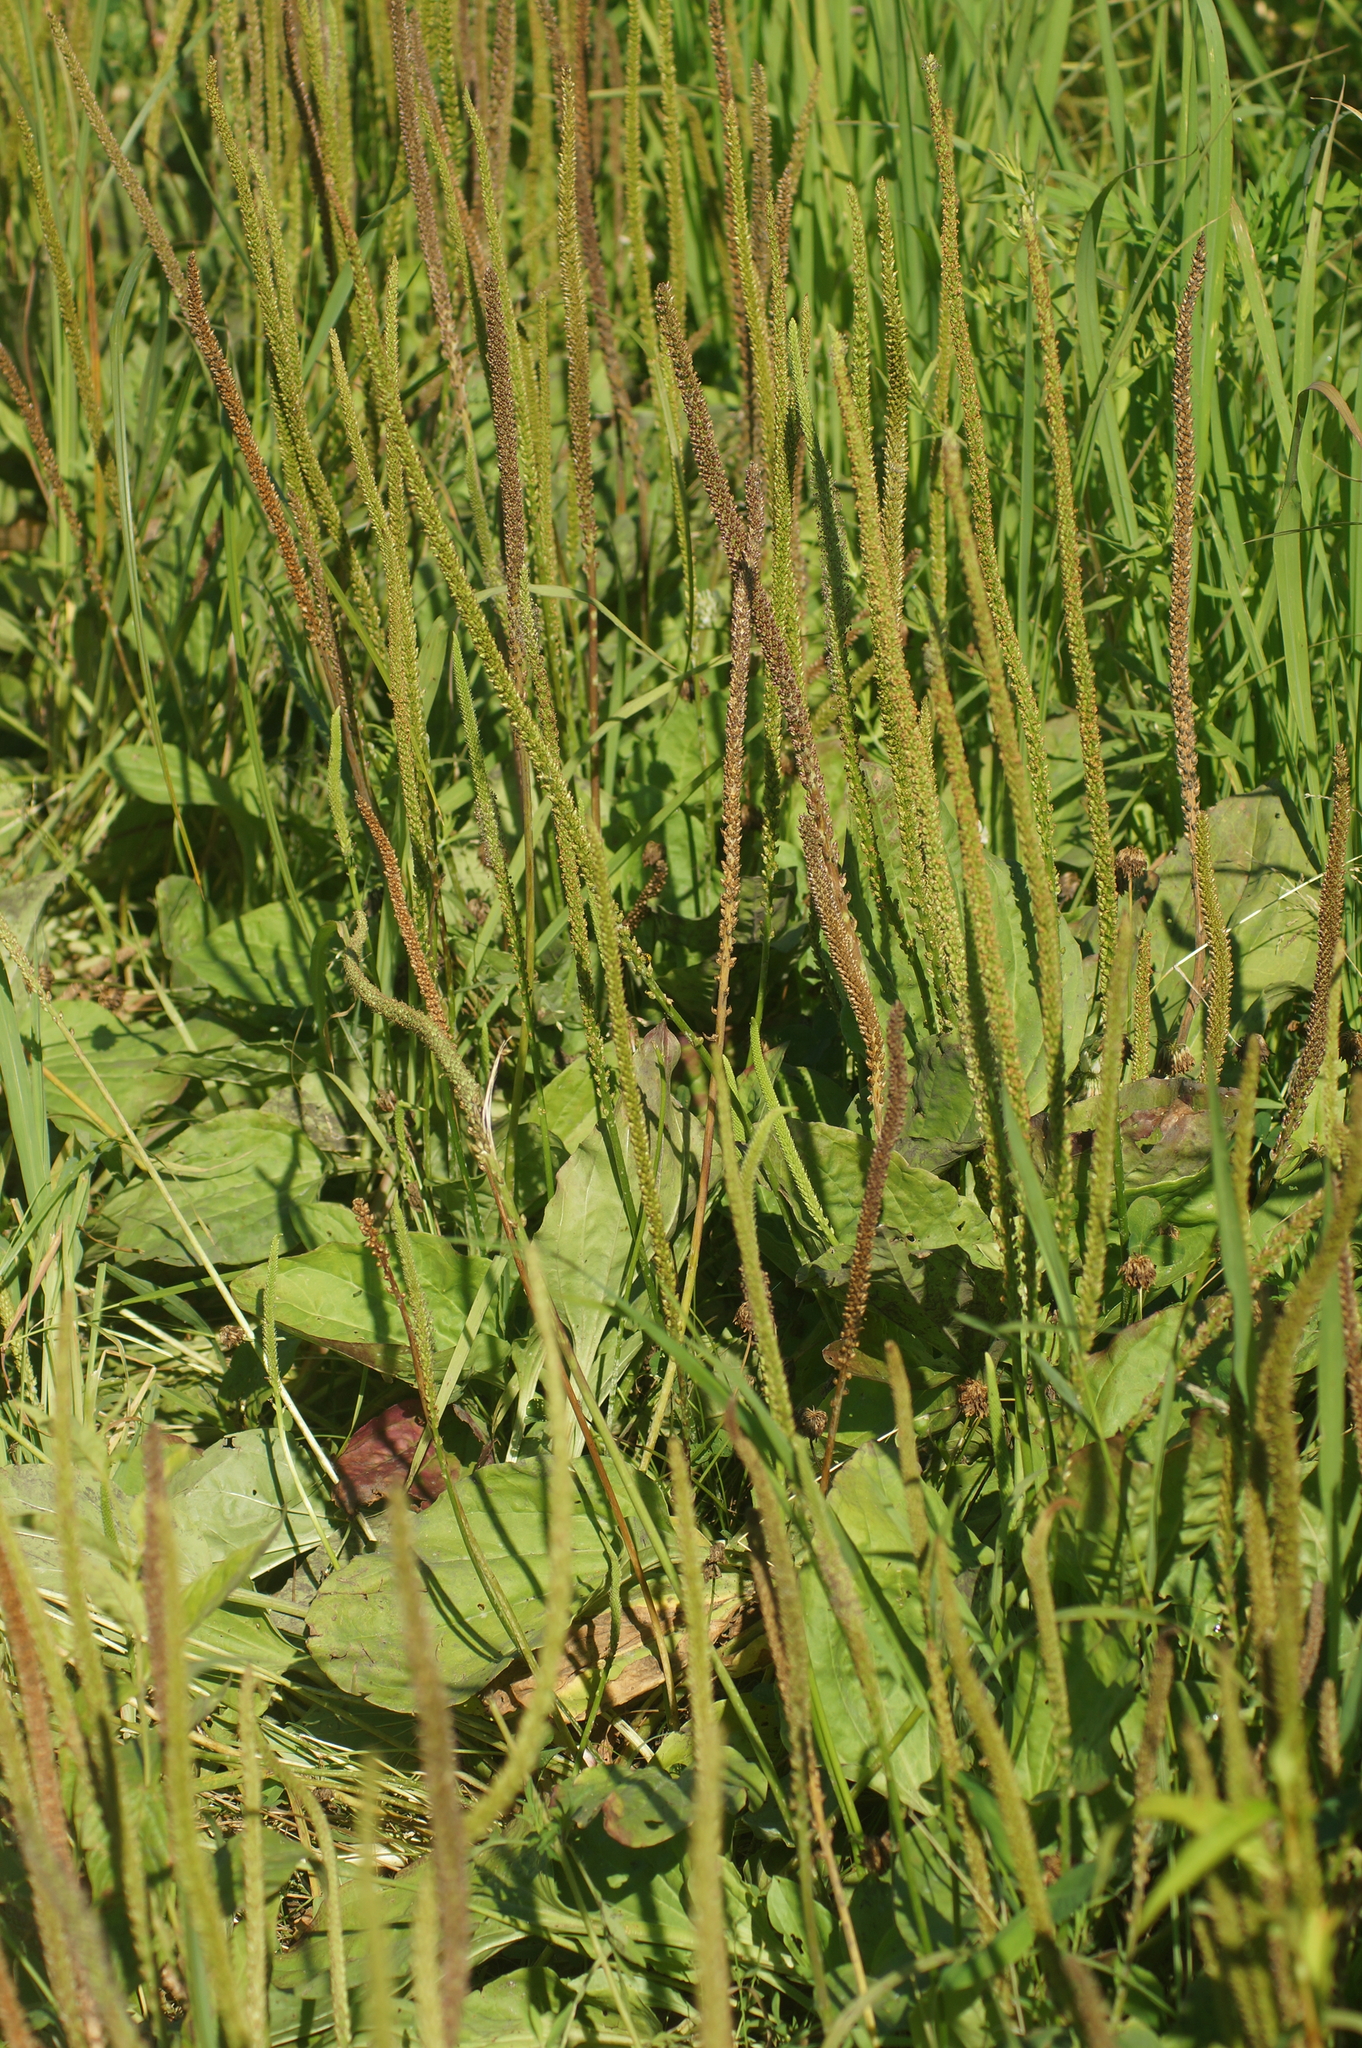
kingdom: Plantae
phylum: Tracheophyta
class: Magnoliopsida
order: Lamiales
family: Plantaginaceae
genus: Plantago
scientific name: Plantago major
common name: Common plantain
